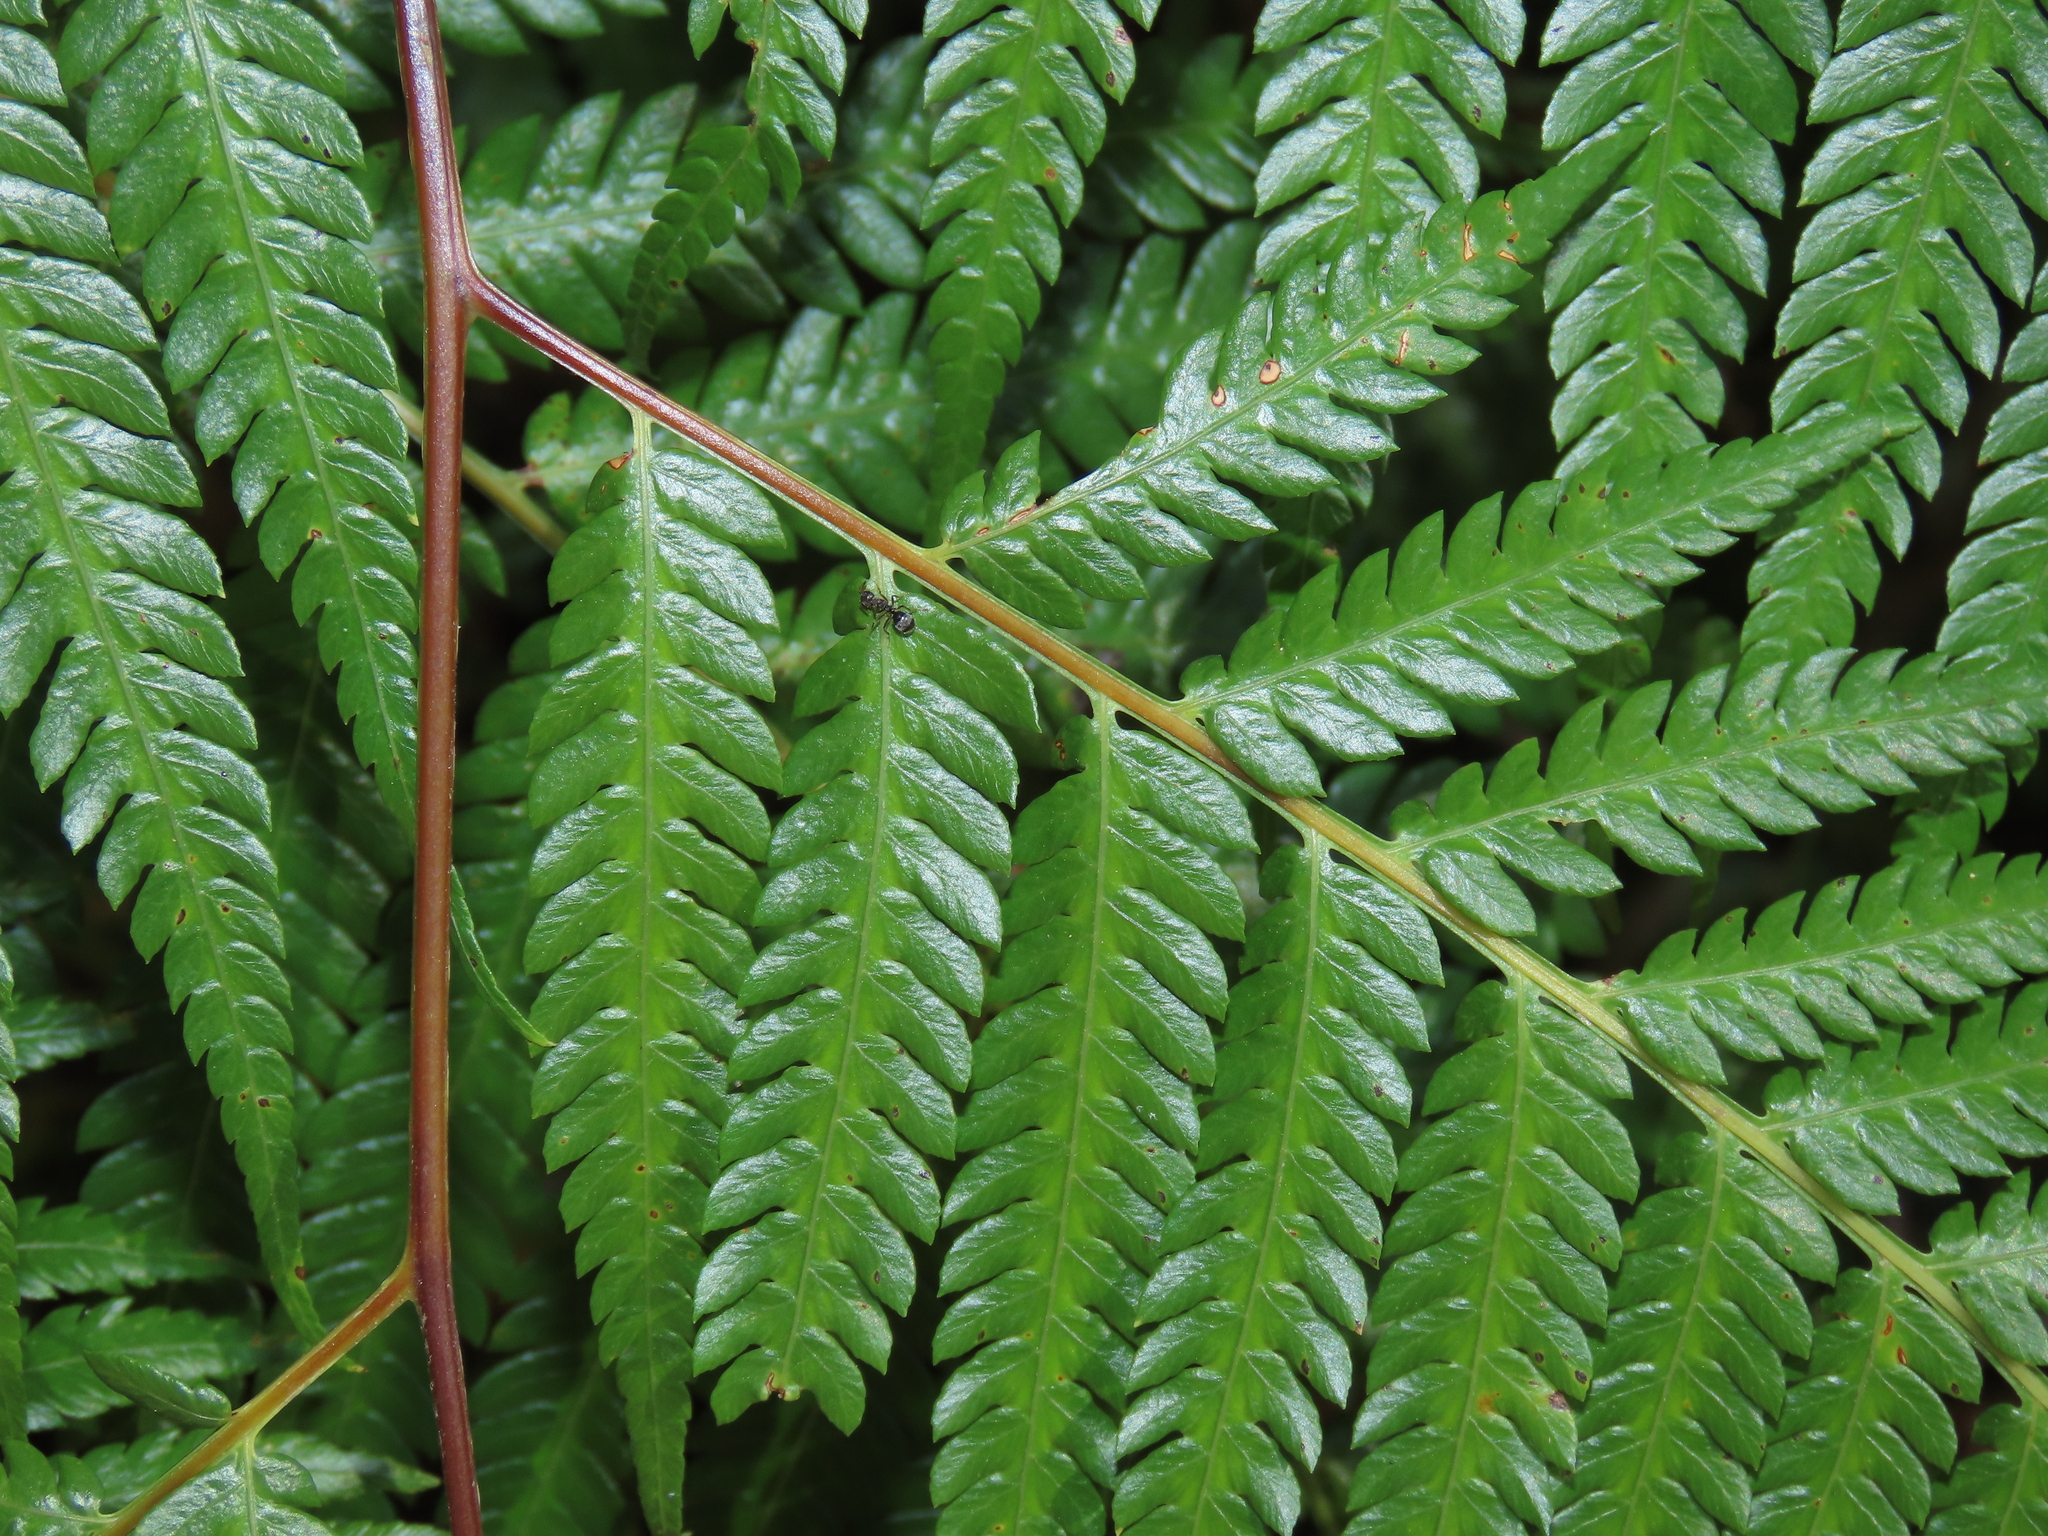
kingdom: Plantae
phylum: Tracheophyta
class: Polypodiopsida
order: Cyatheales
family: Cibotiaceae
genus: Cibotium
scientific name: Cibotium taiwanense
